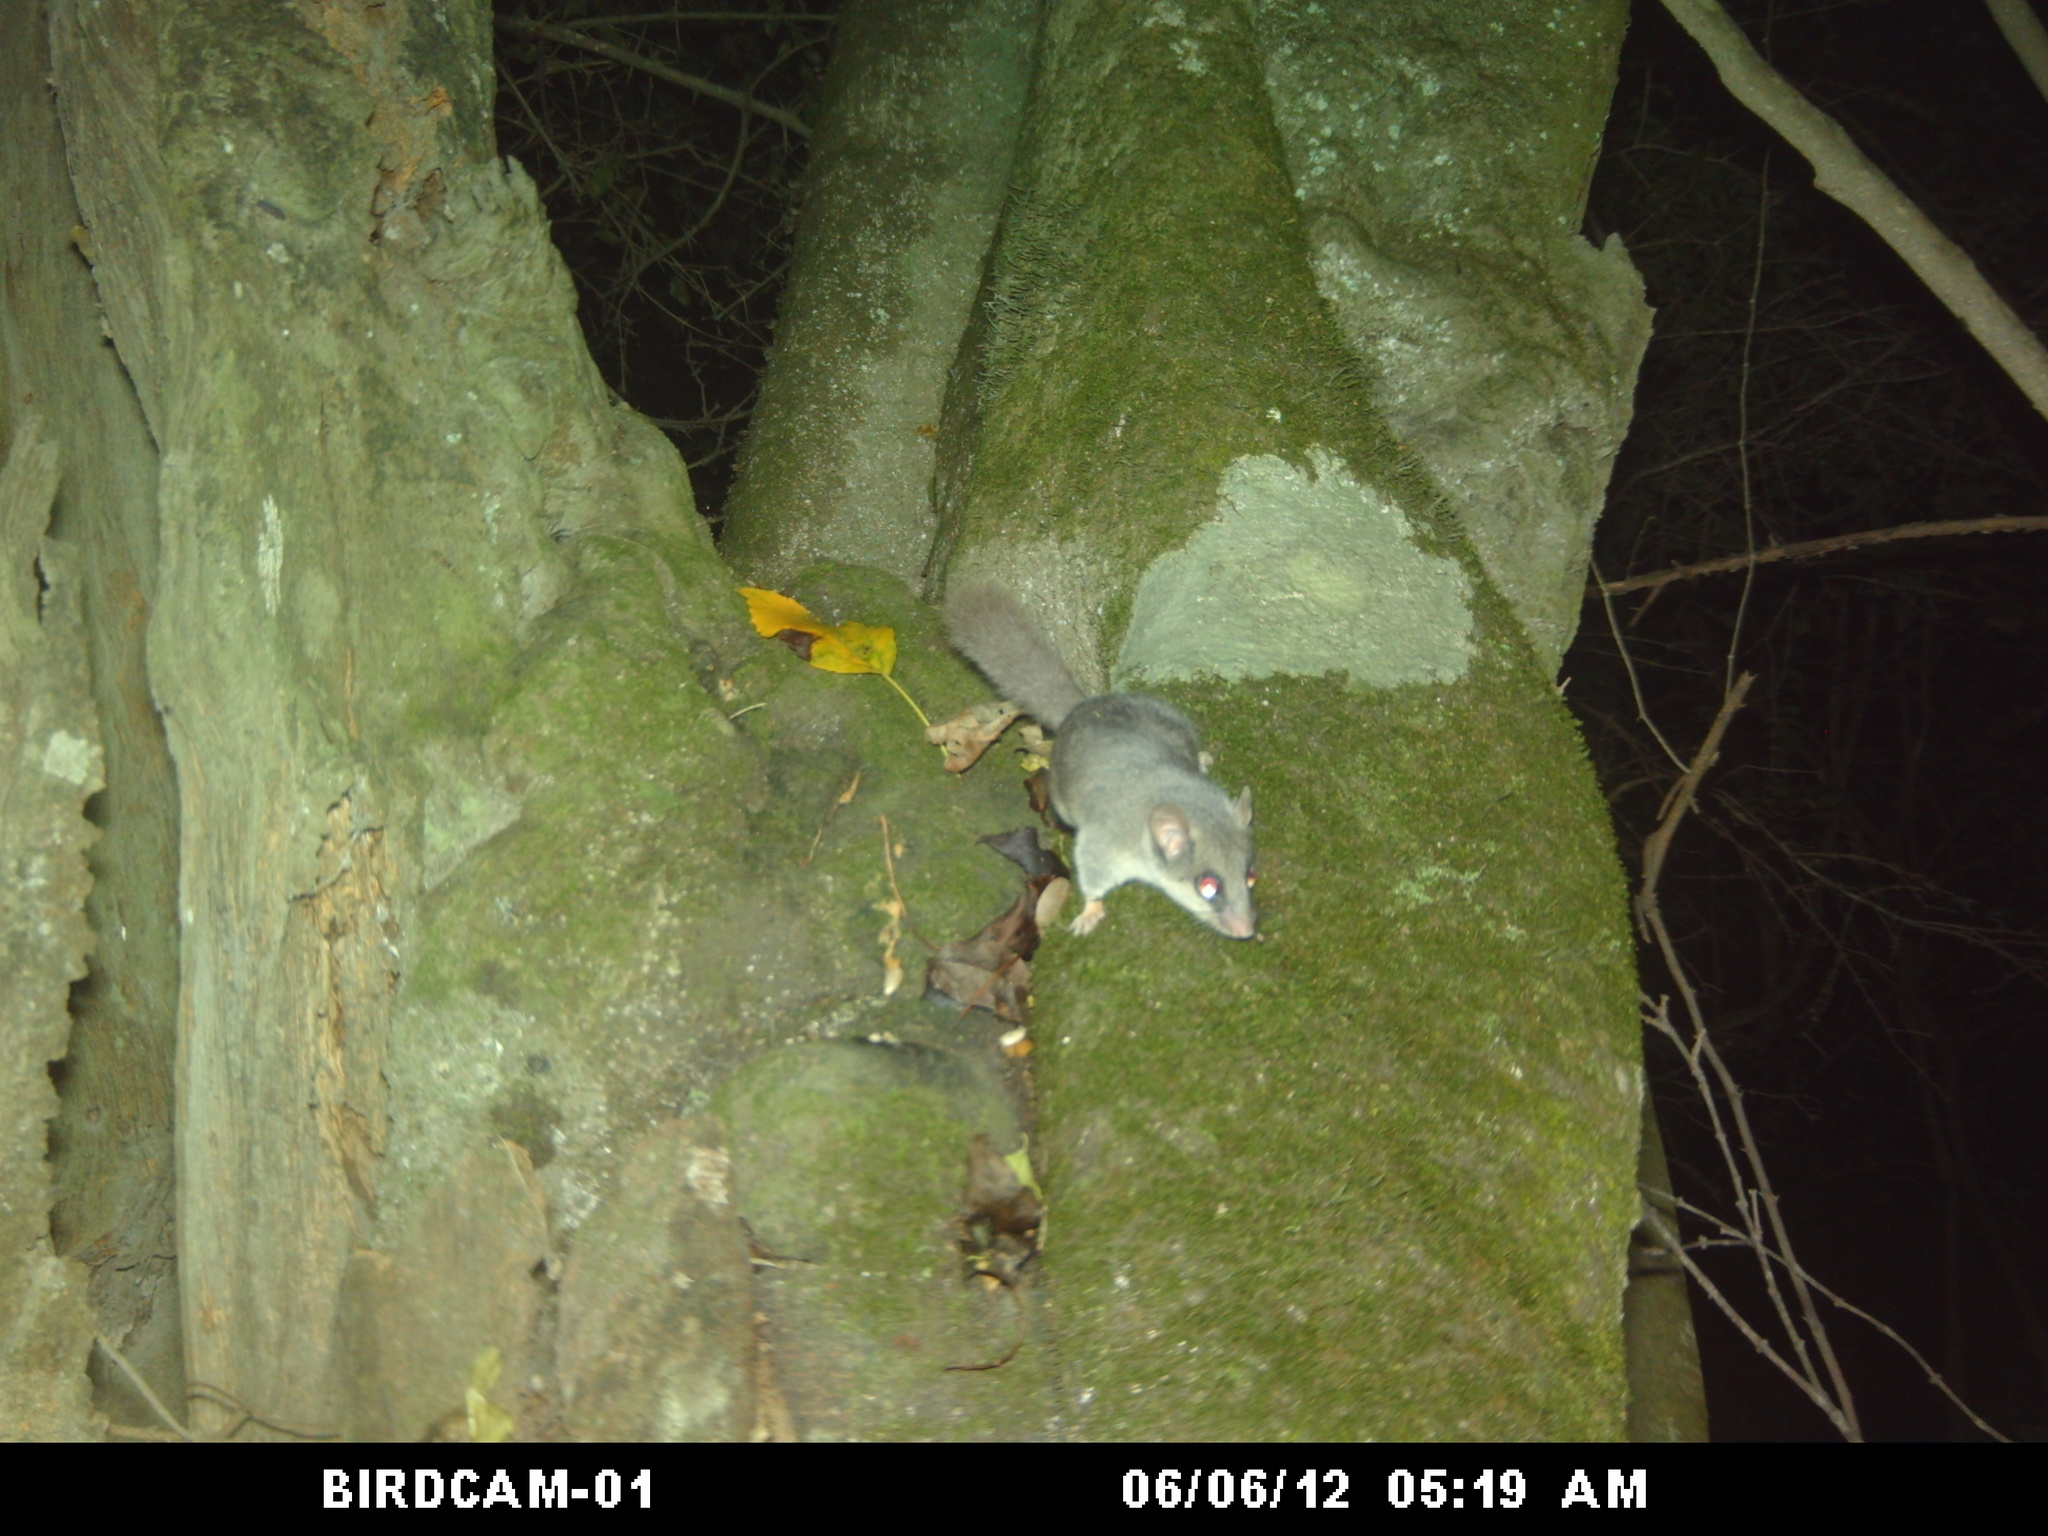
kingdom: Animalia
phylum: Chordata
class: Mammalia
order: Rodentia
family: Gliridae
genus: Graphiurus
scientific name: Graphiurus murinus
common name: Forest african dormouse
